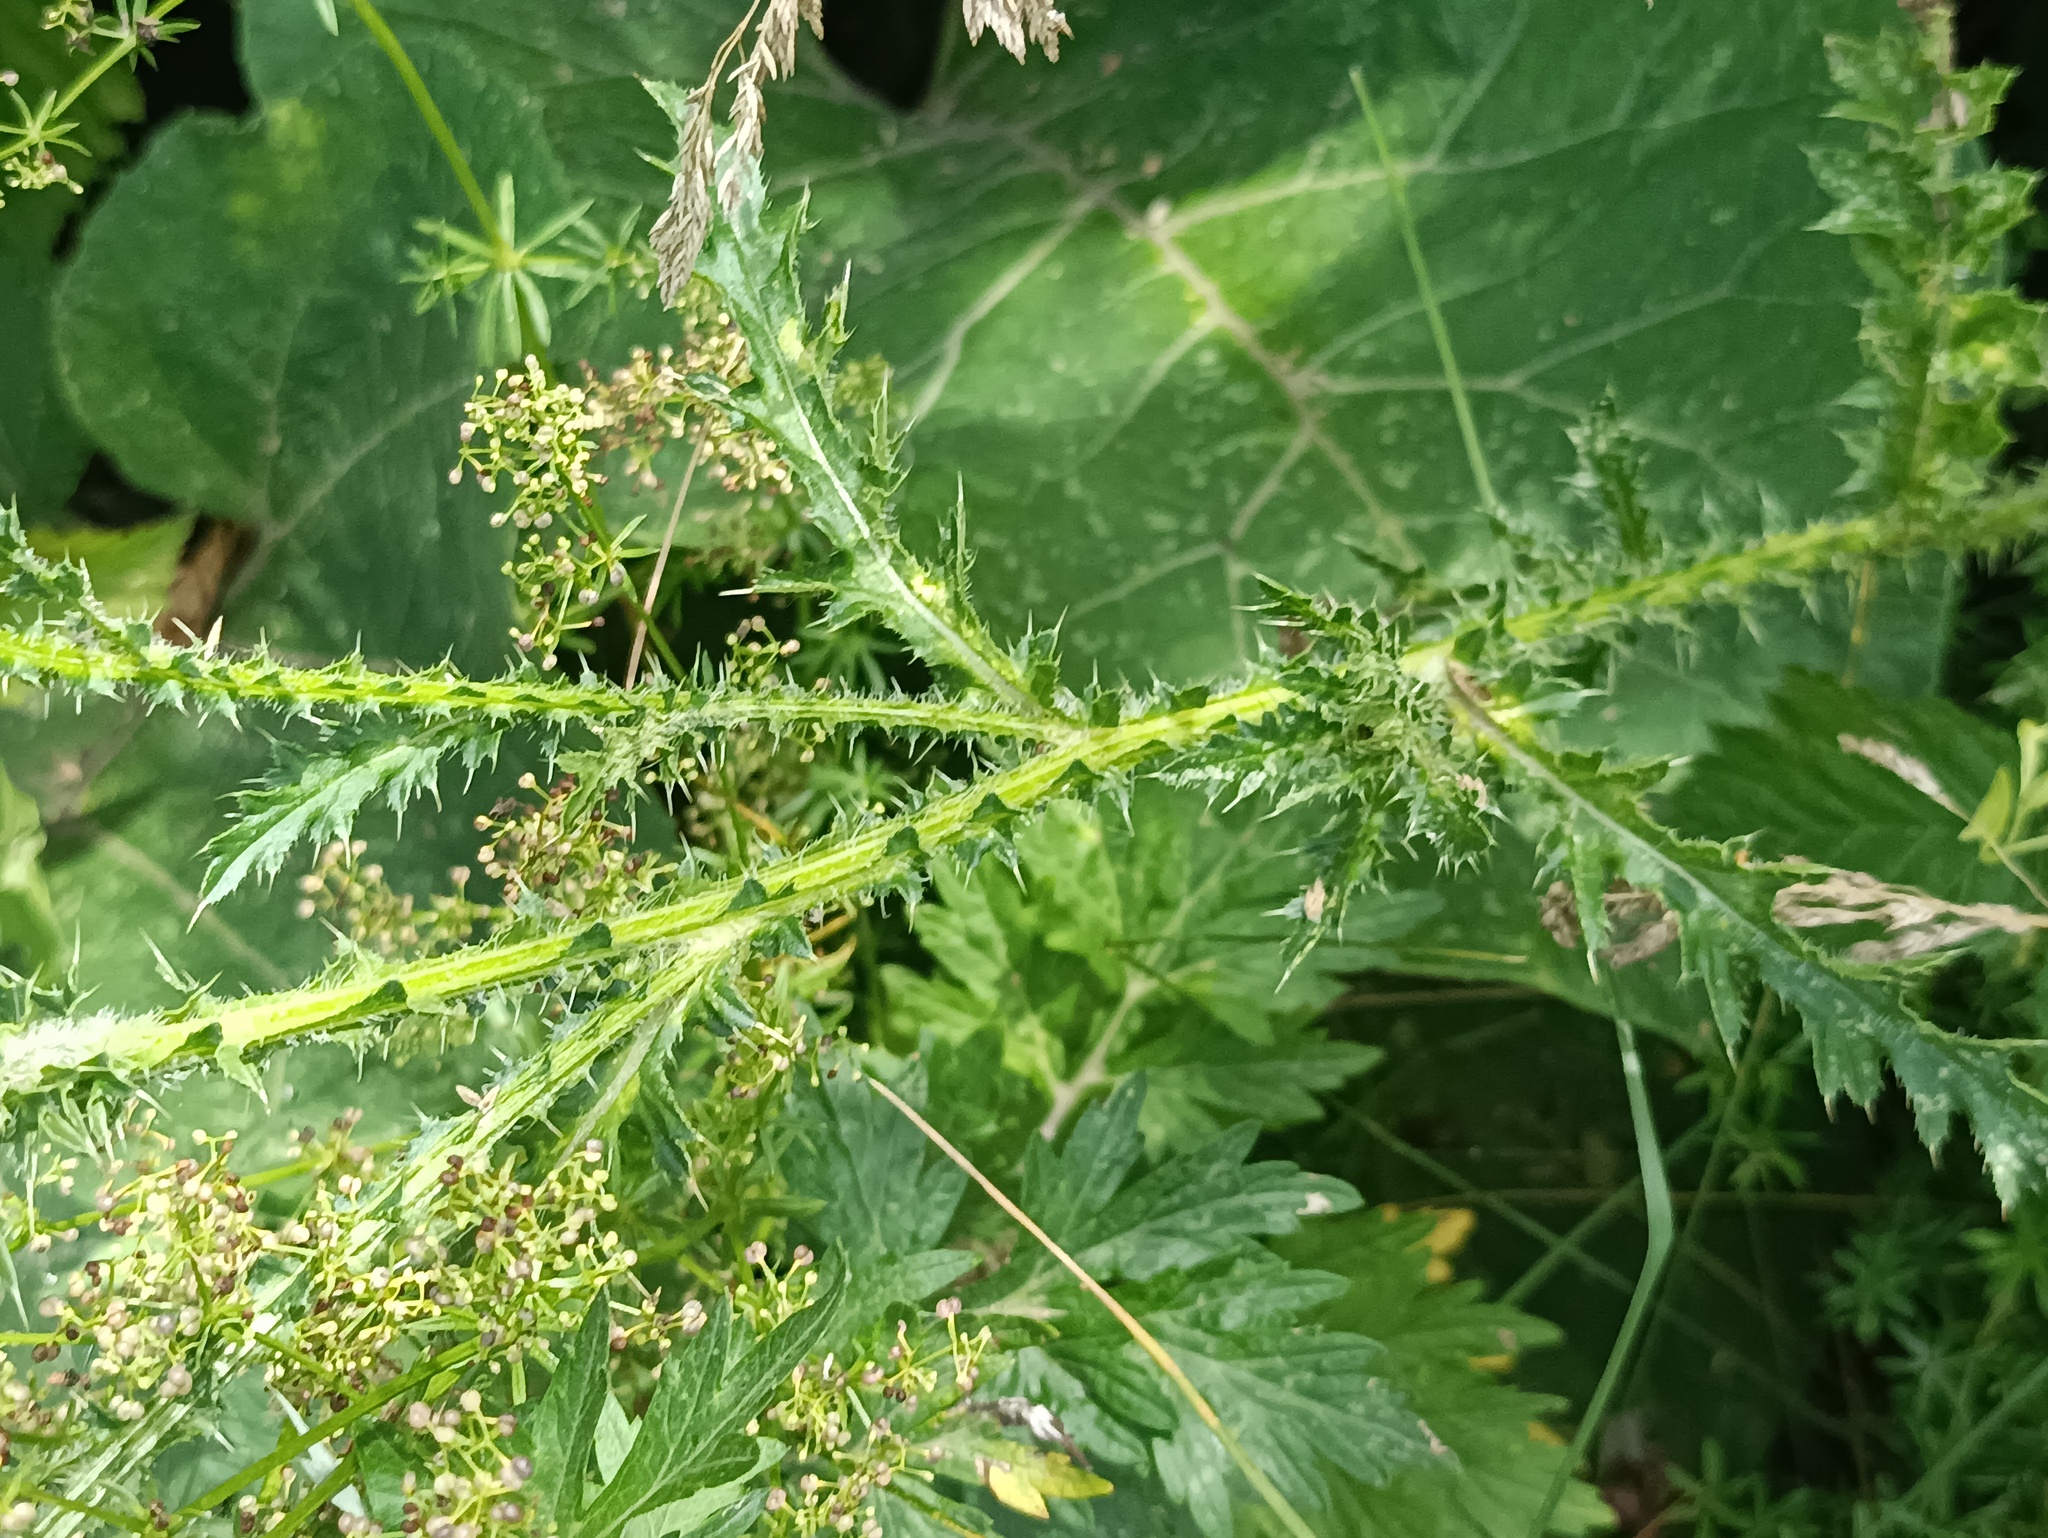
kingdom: Plantae
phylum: Tracheophyta
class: Magnoliopsida
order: Asterales
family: Asteraceae
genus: Carduus
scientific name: Carduus acanthoides
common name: Plumeless thistle
